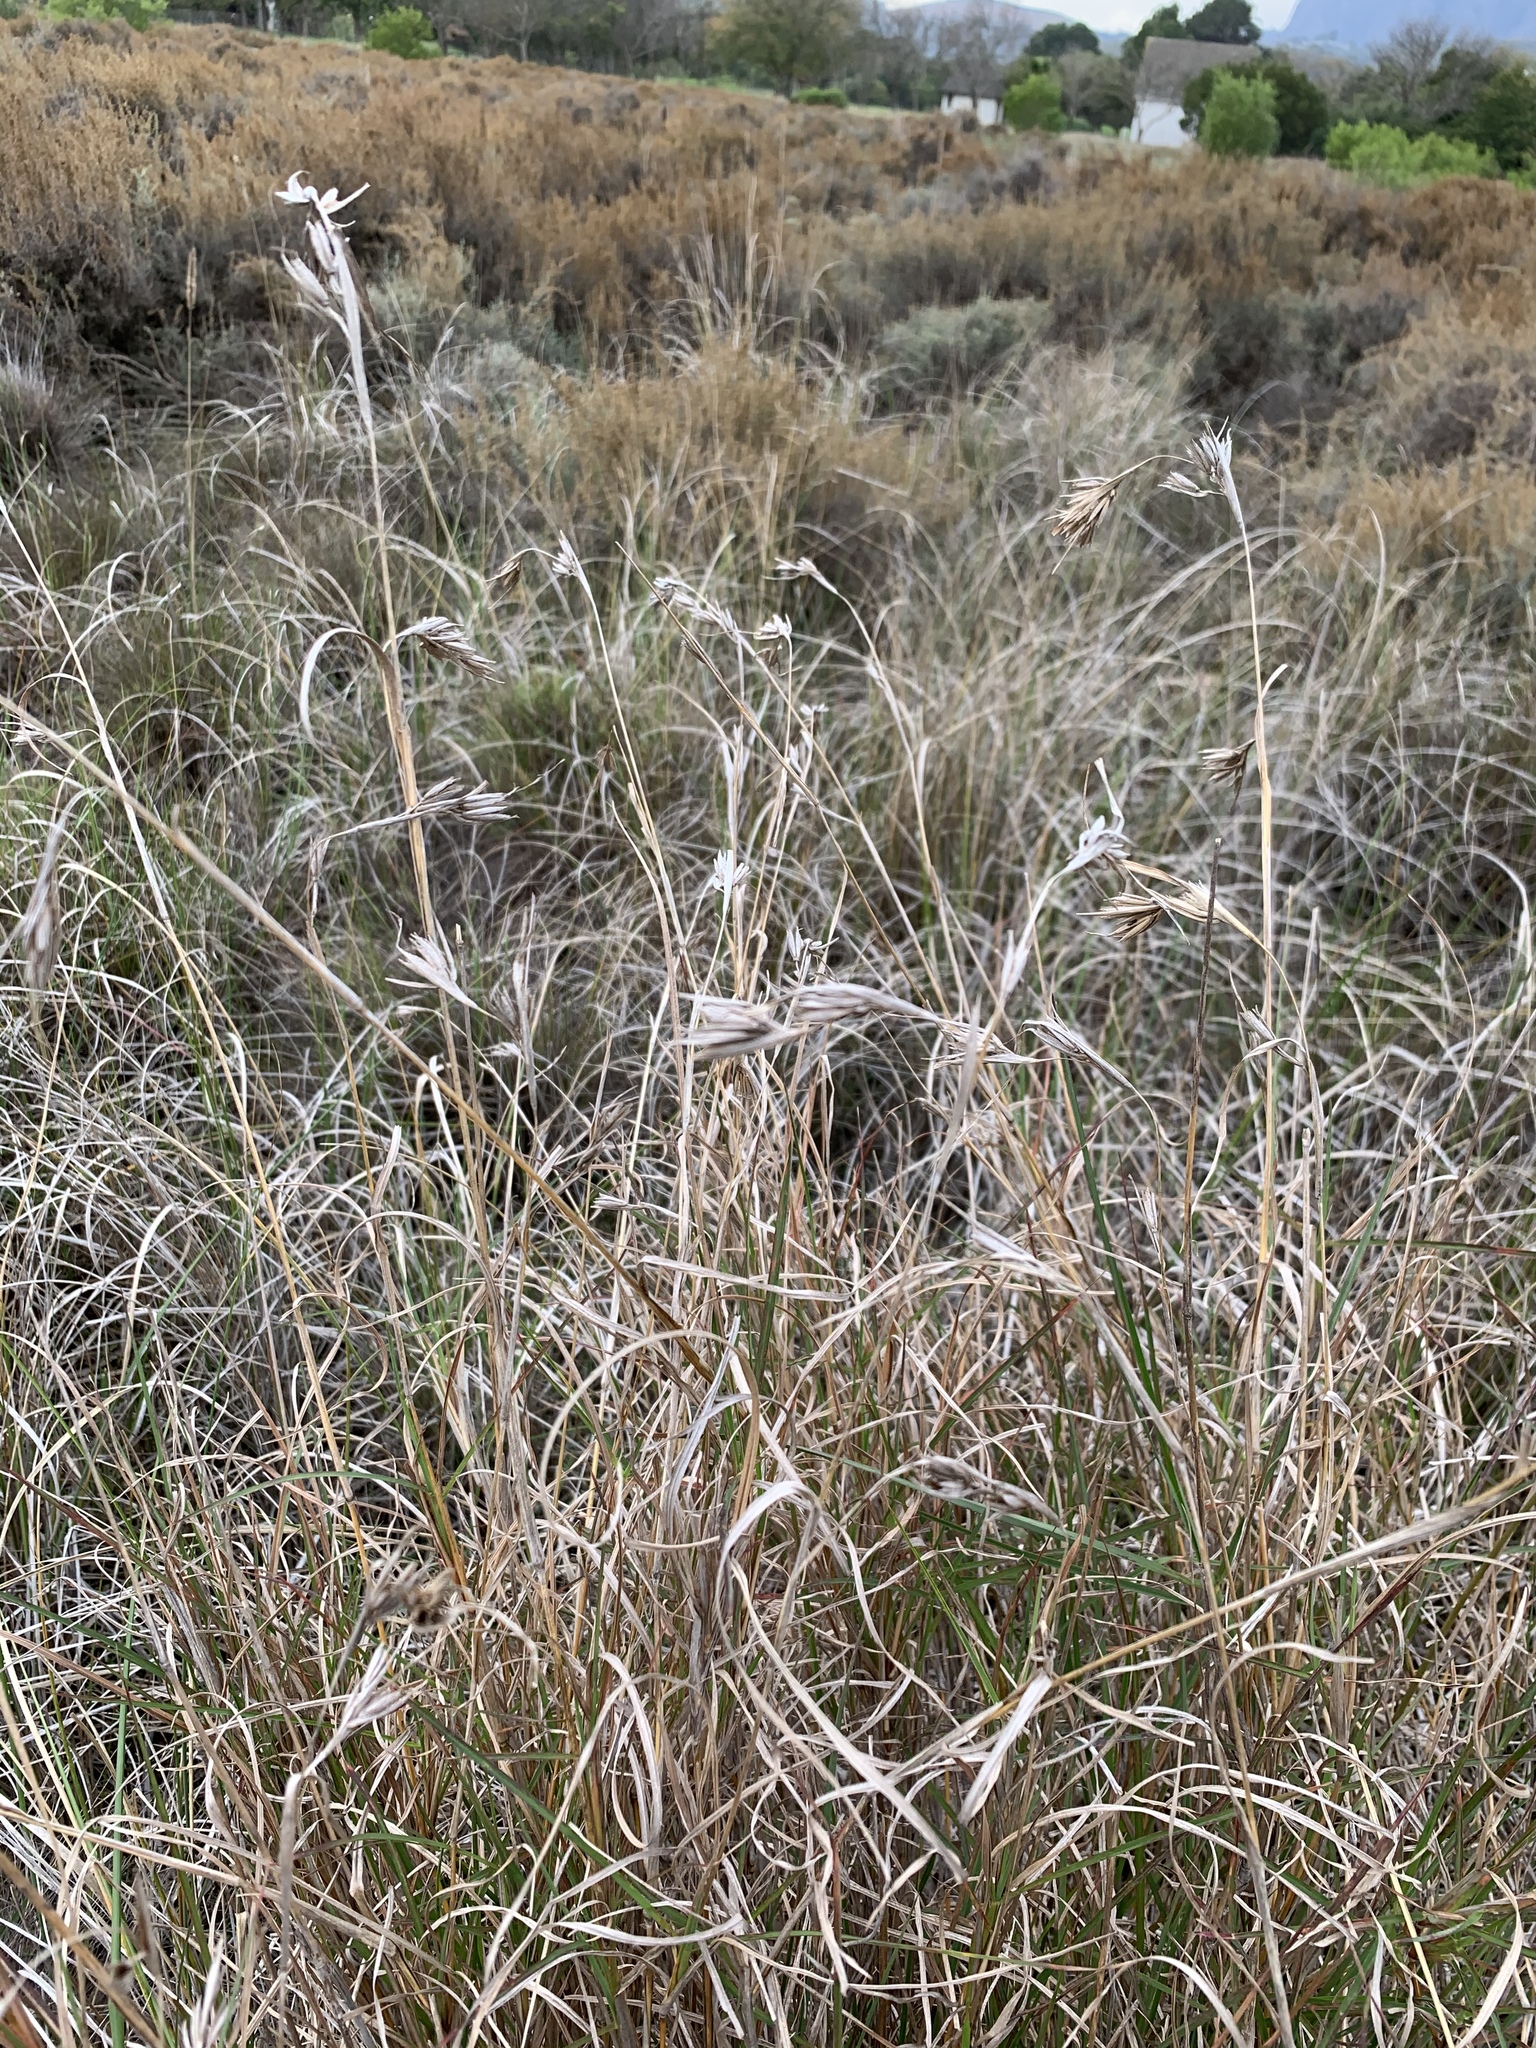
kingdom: Plantae
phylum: Tracheophyta
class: Liliopsida
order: Poales
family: Poaceae
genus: Themeda
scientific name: Themeda triandra
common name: Kangaroo grass
